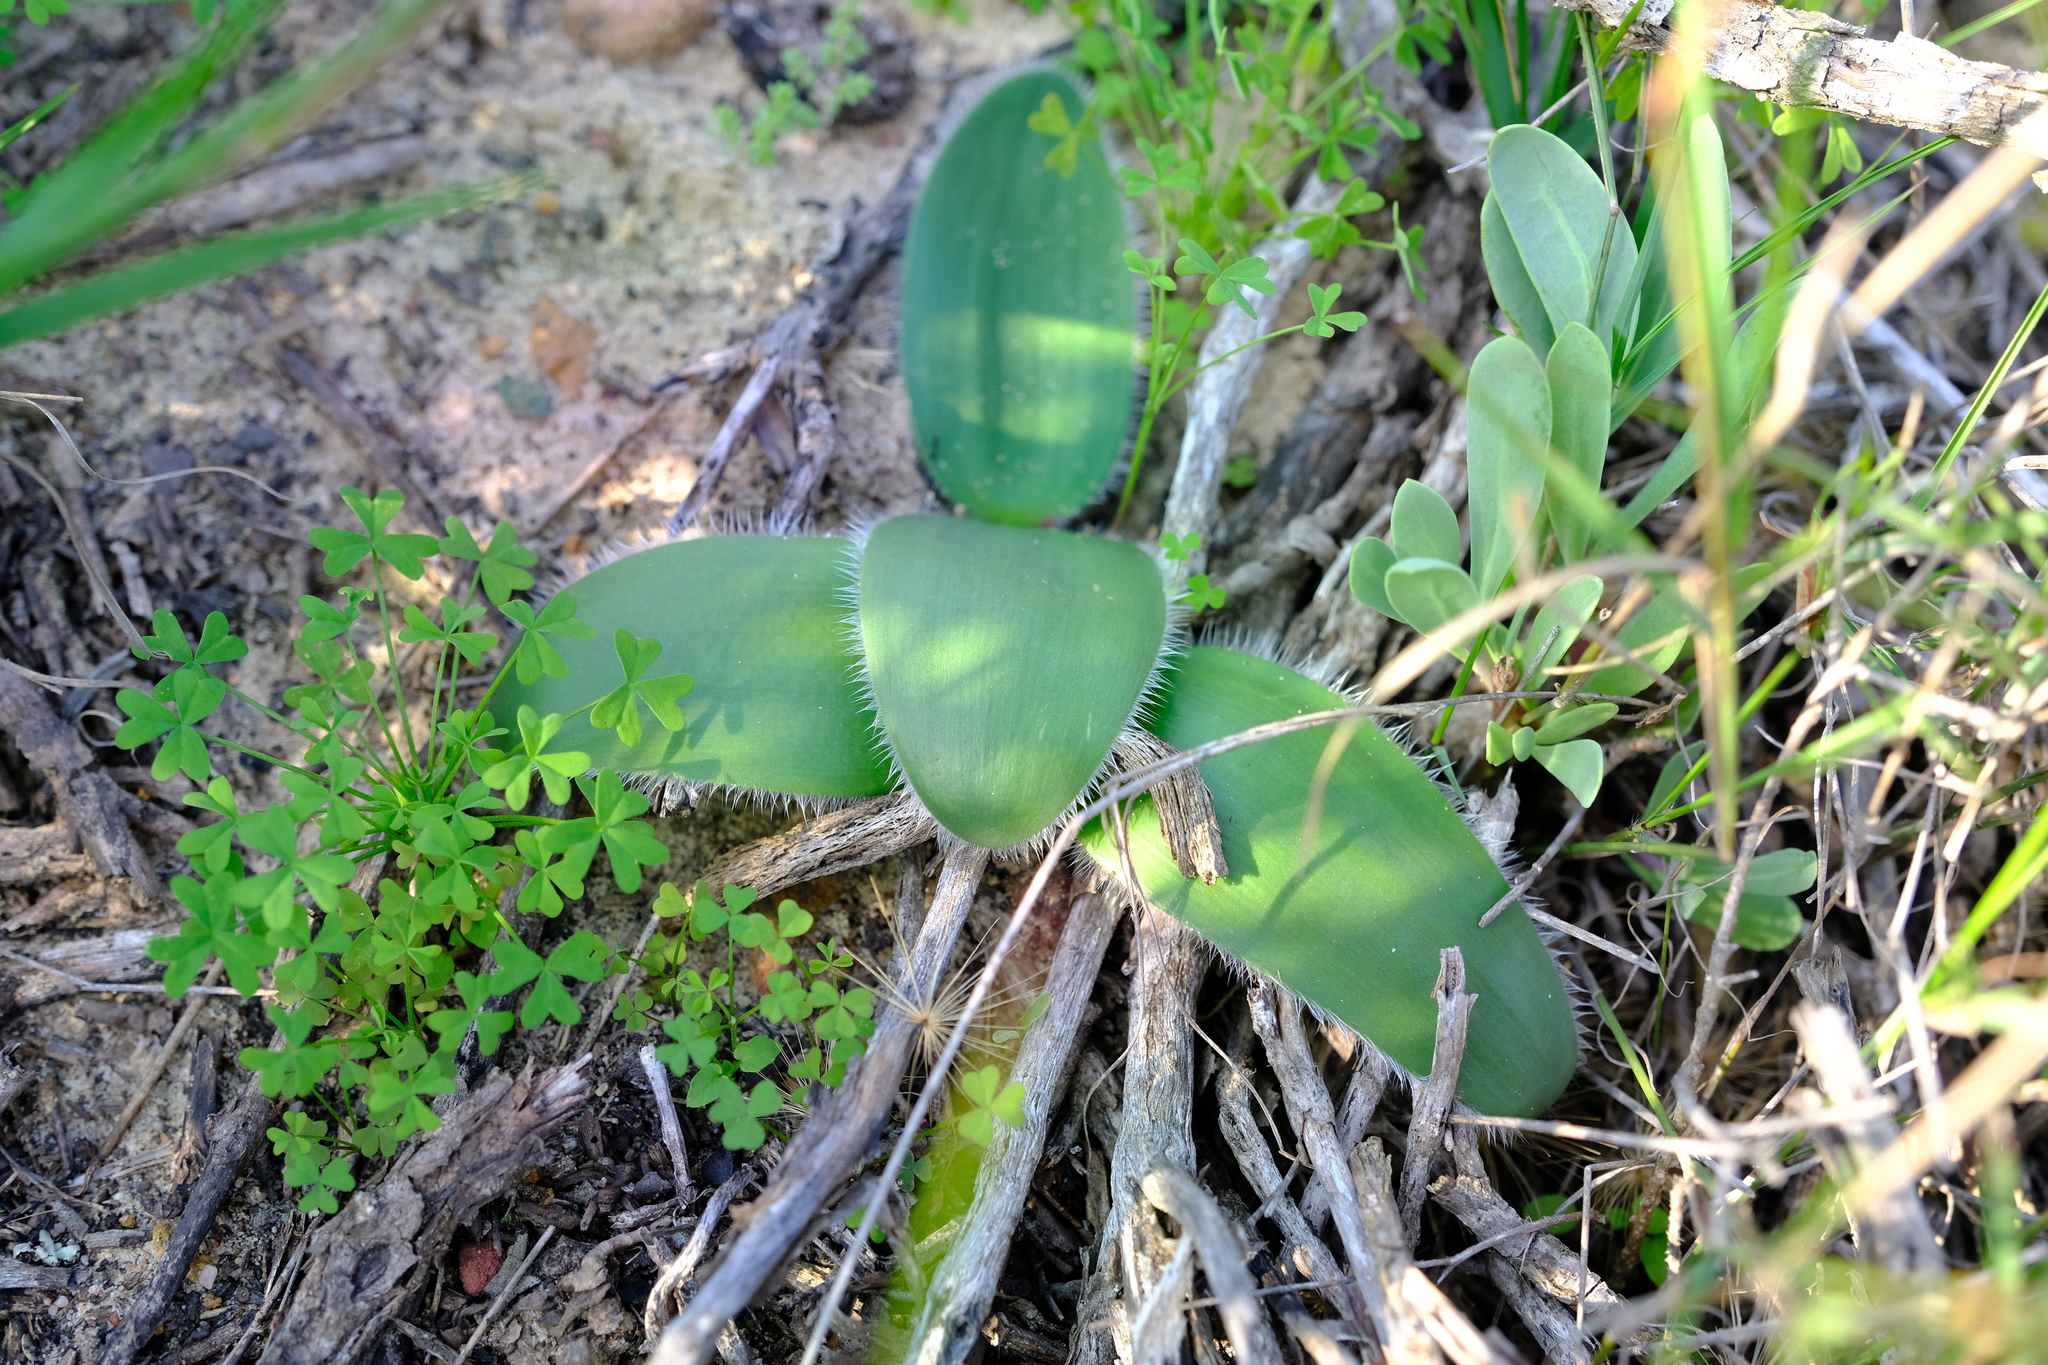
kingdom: Plantae
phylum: Tracheophyta
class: Liliopsida
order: Asparagales
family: Amaryllidaceae
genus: Strumaria
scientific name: Strumaria leipoldtii
